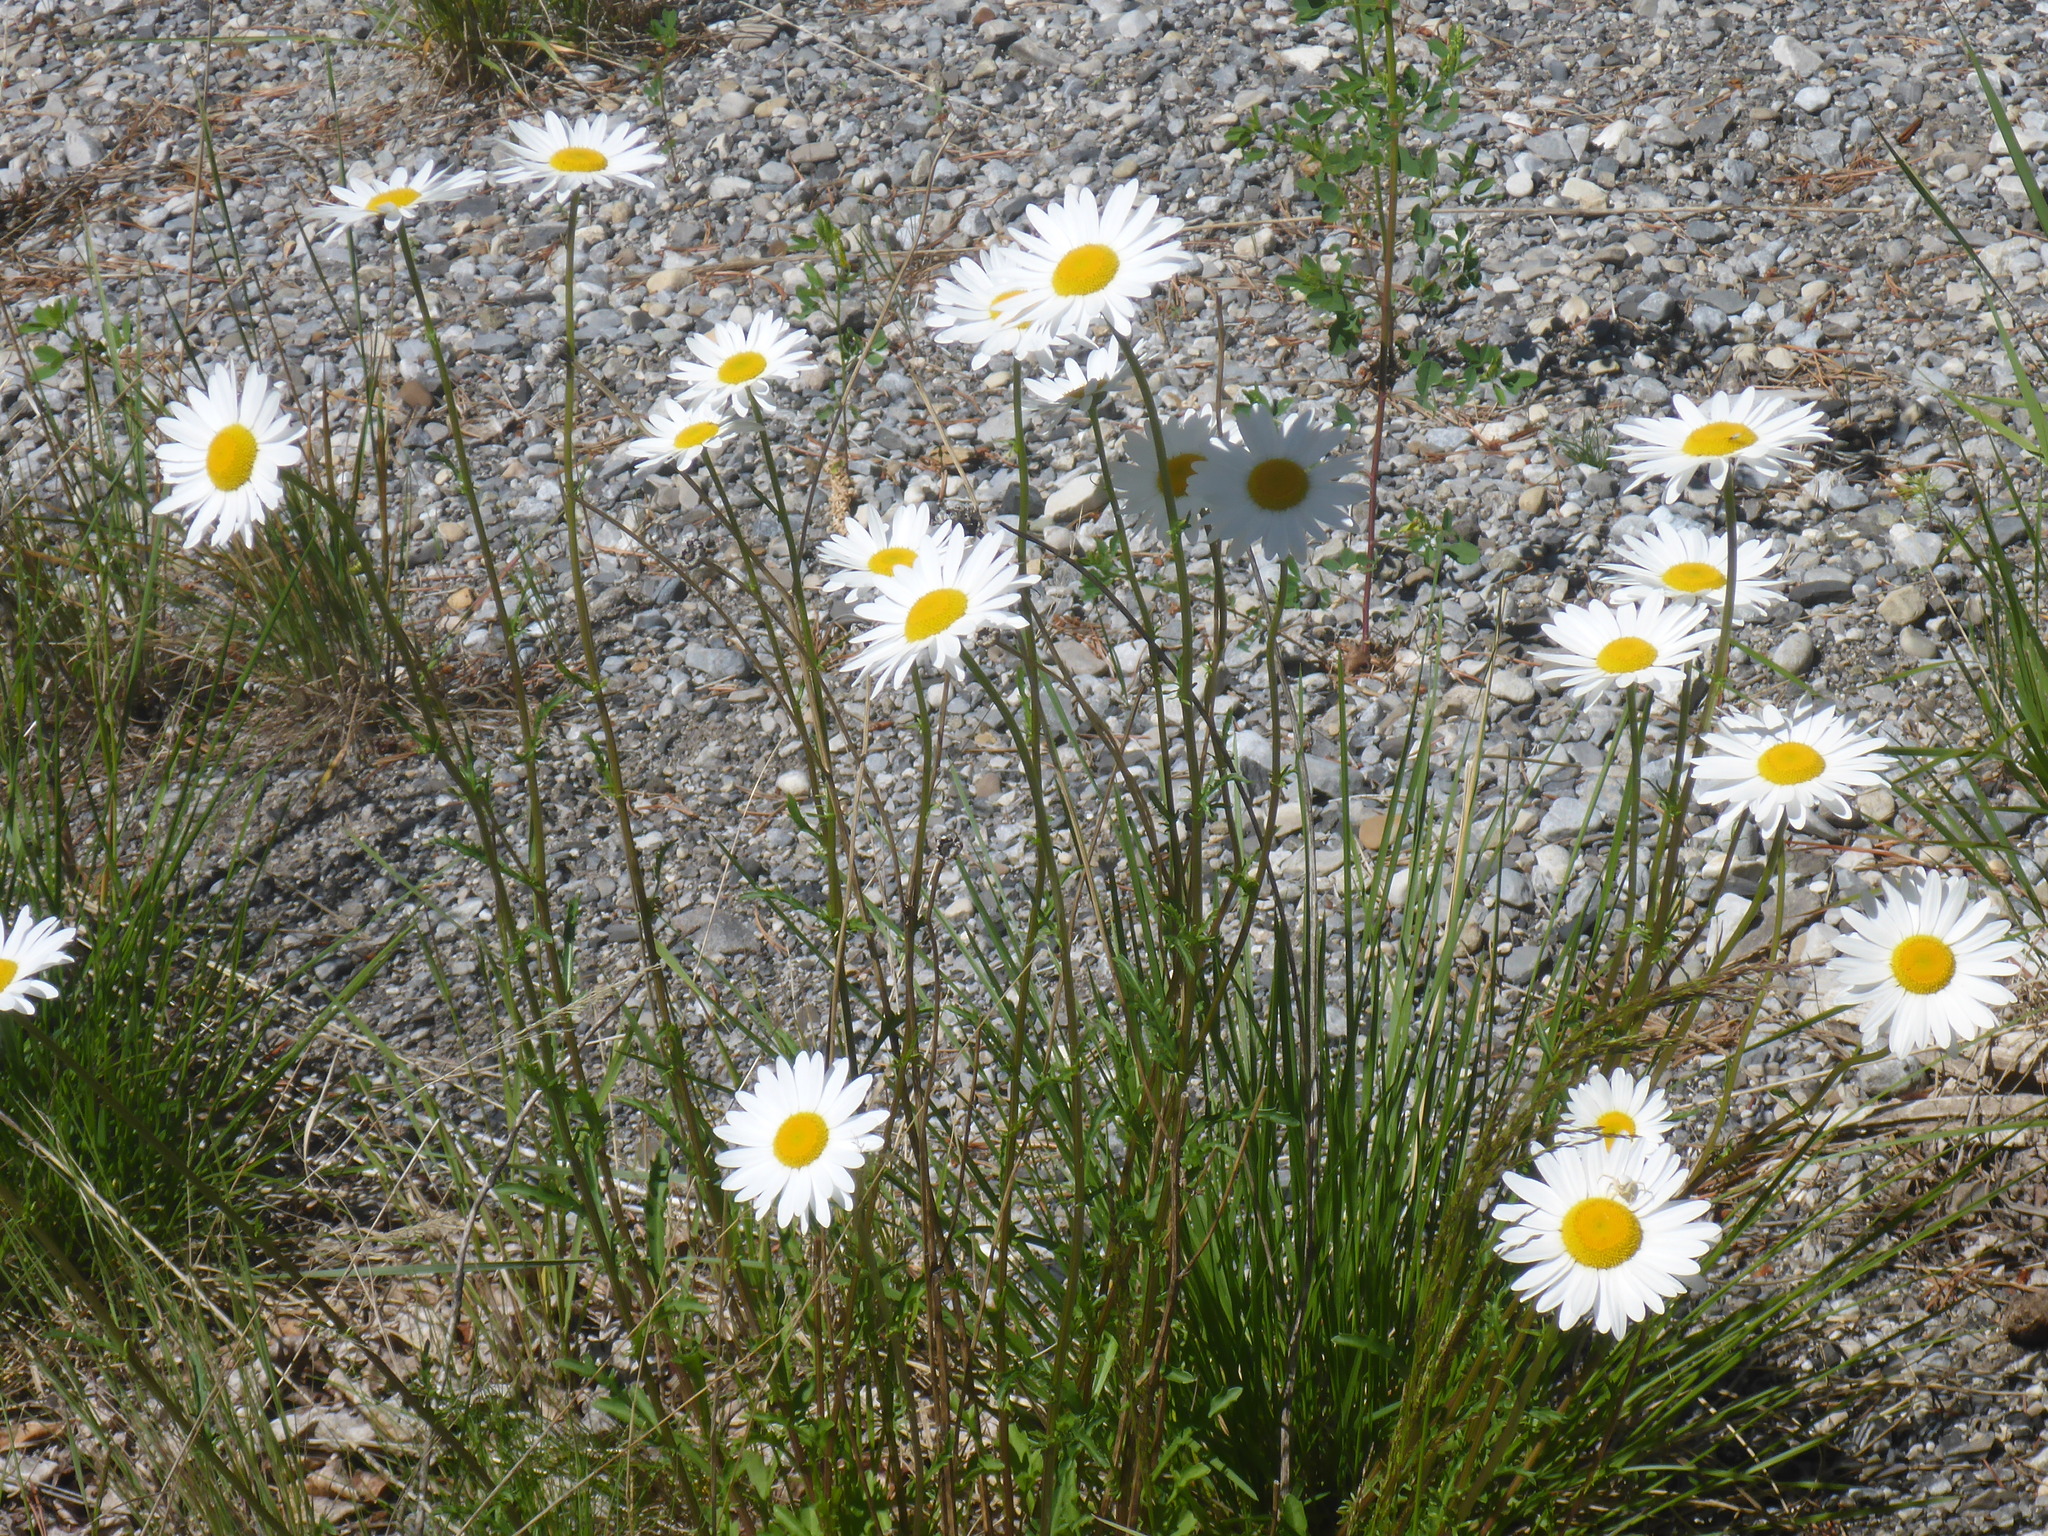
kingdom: Plantae
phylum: Tracheophyta
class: Magnoliopsida
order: Asterales
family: Asteraceae
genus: Leucanthemum
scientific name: Leucanthemum vulgare
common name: Oxeye daisy
